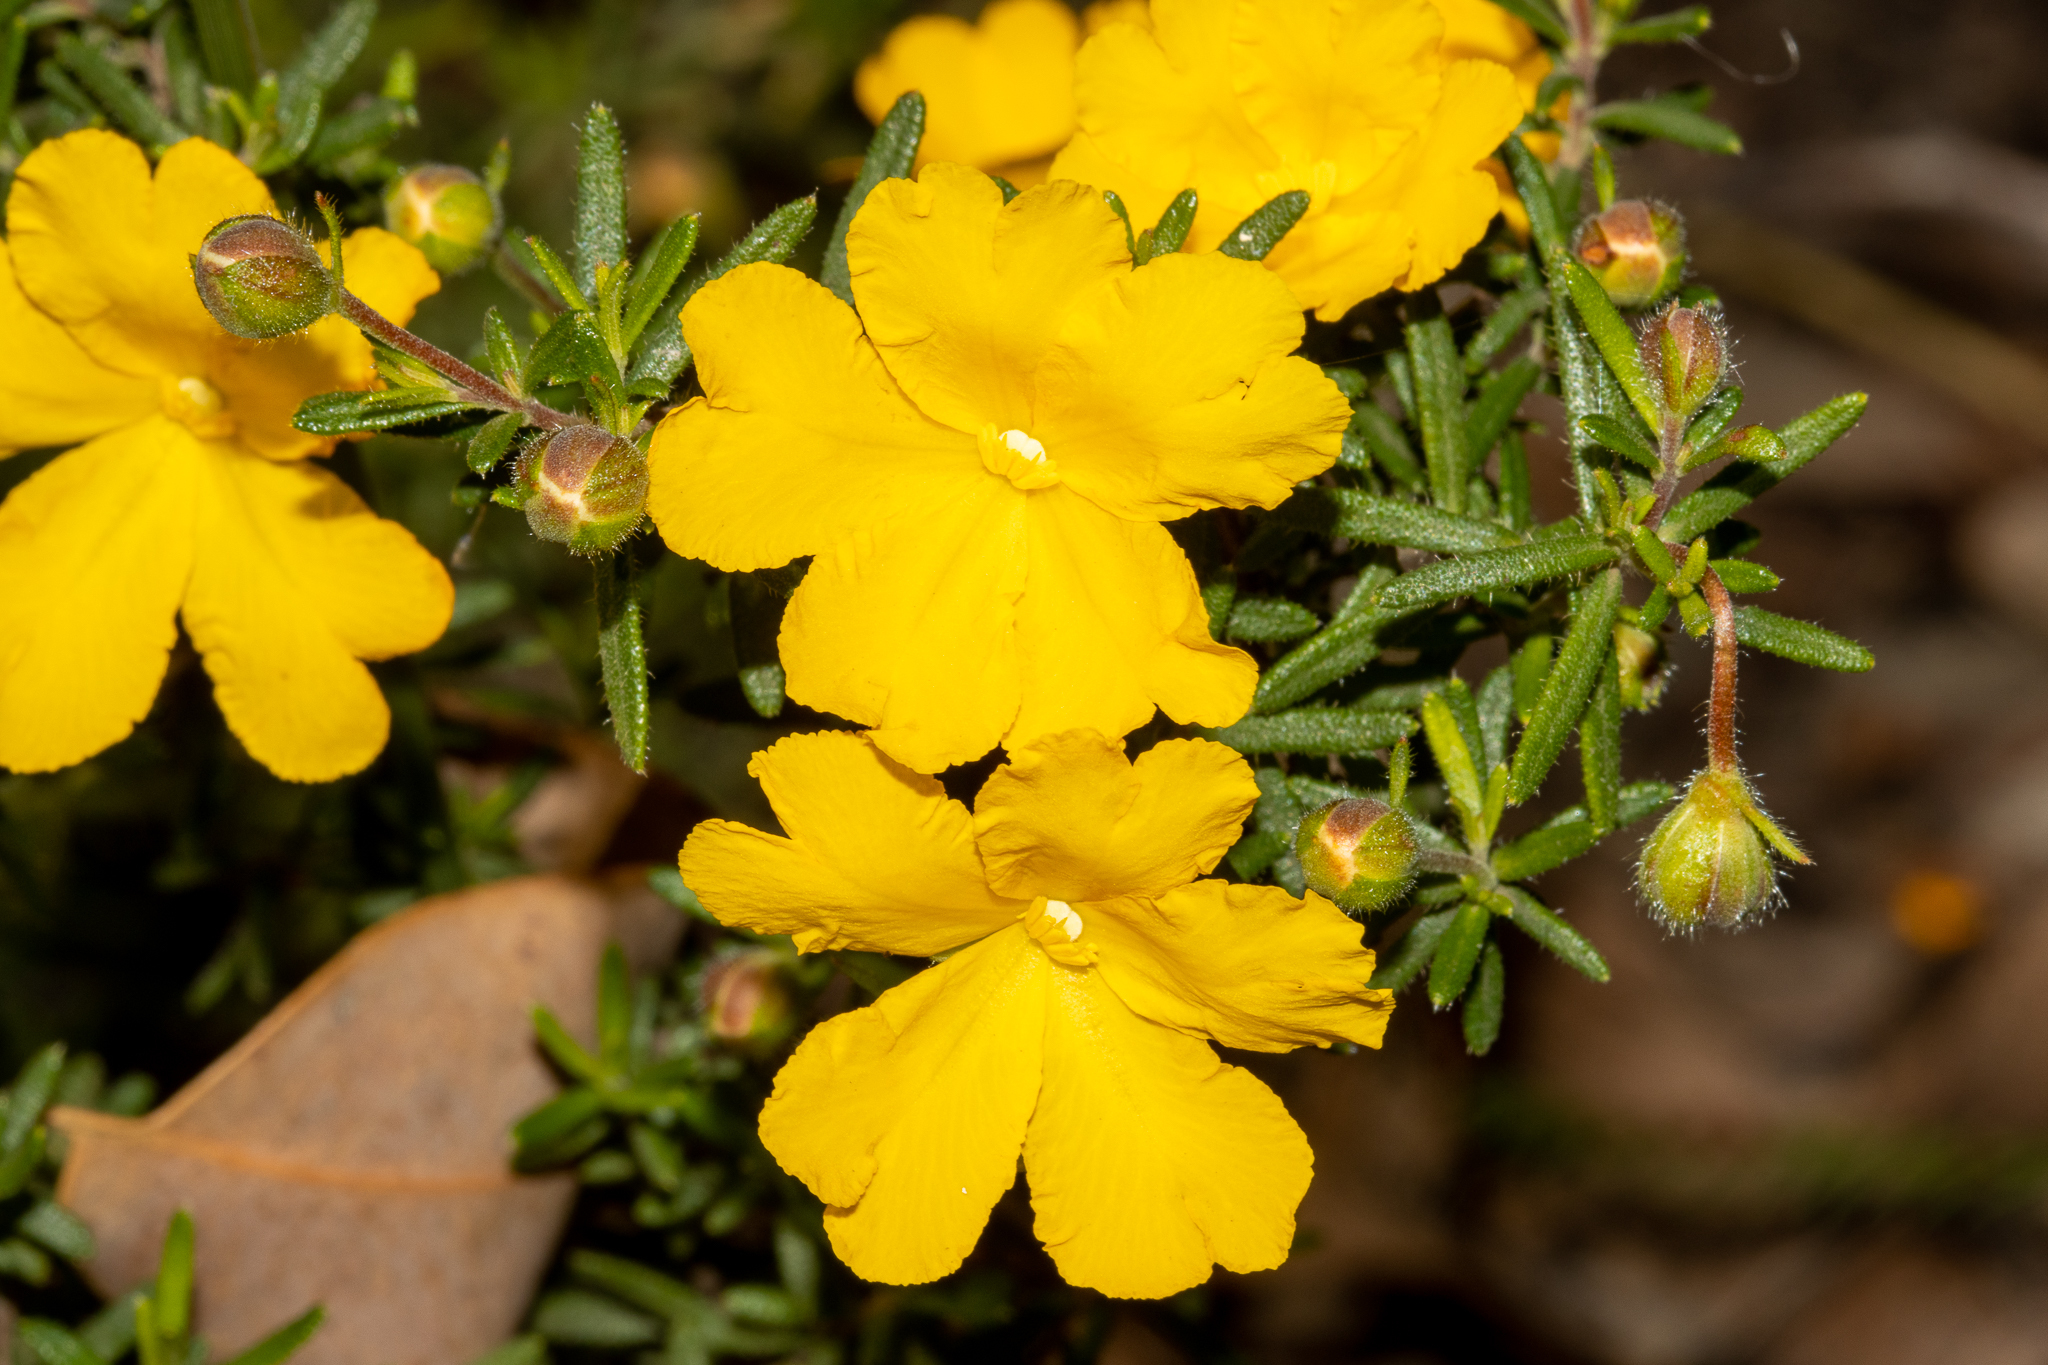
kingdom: Plantae
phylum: Tracheophyta
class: Magnoliopsida
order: Dilleniales
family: Dilleniaceae
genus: Hibbertia
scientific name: Hibbertia hypericoides
